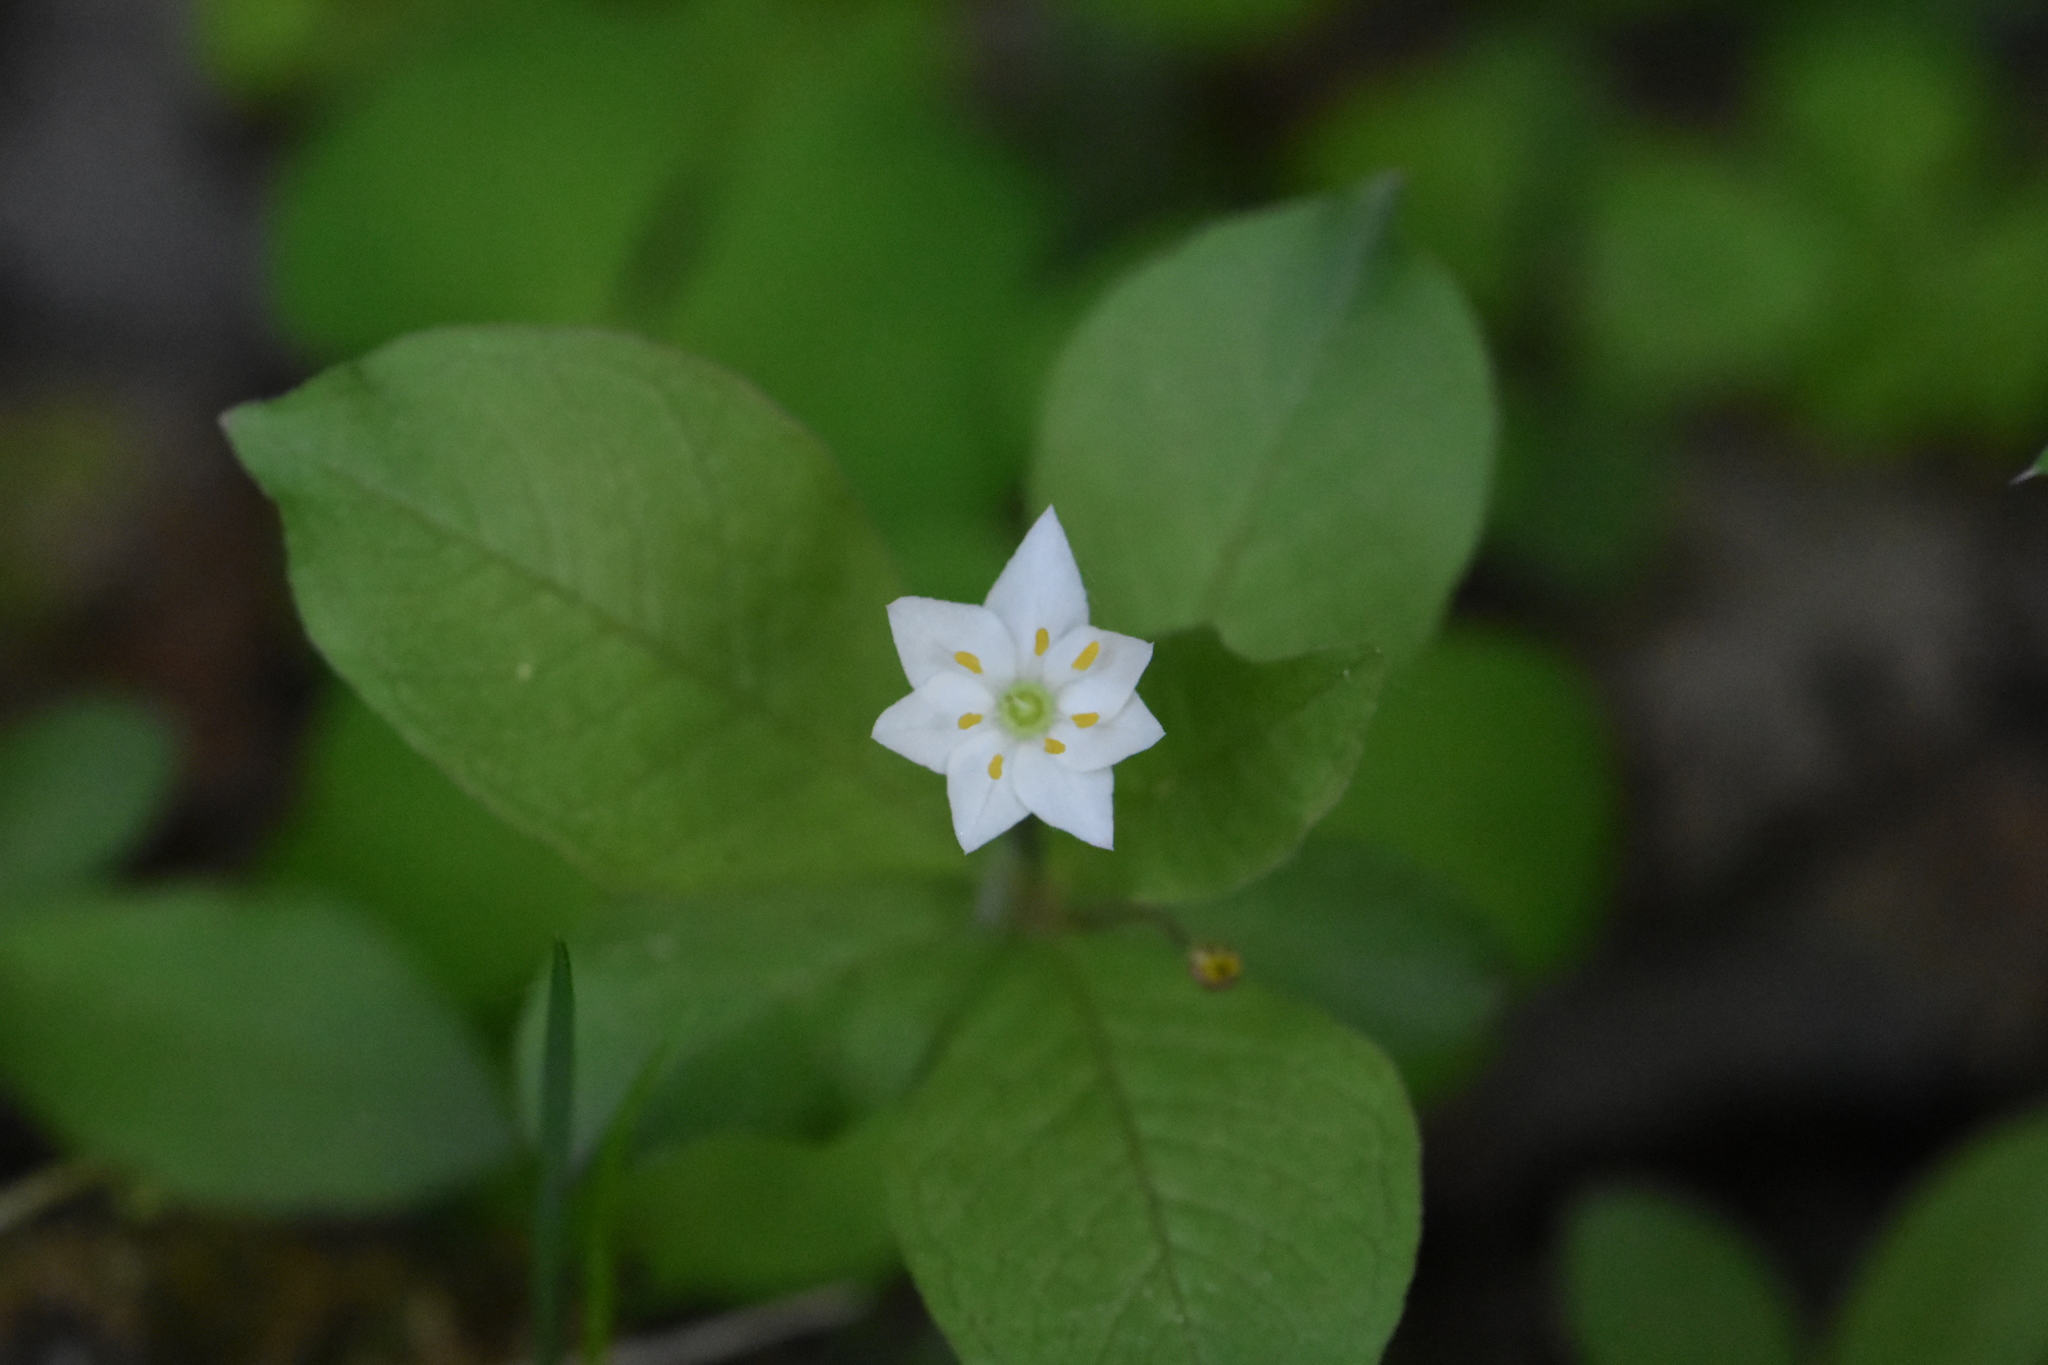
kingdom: Plantae
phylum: Tracheophyta
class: Magnoliopsida
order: Ericales
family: Primulaceae
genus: Lysimachia
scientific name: Lysimachia europaea
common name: Arctic starflower
